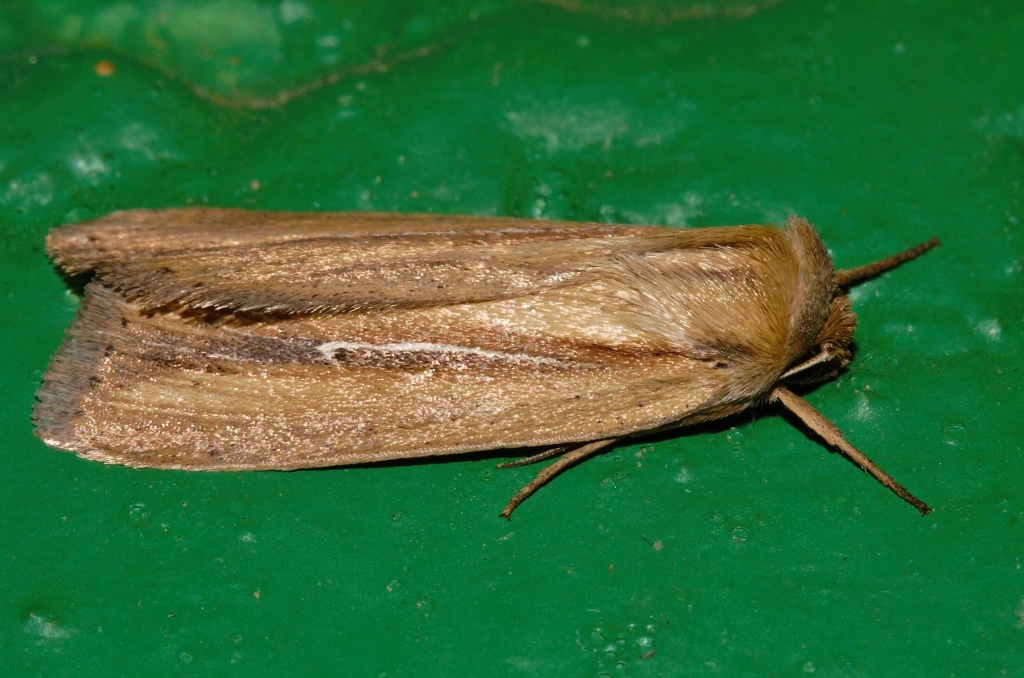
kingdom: Animalia
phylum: Arthropoda
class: Insecta
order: Lepidoptera
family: Noctuidae
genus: Mythimna
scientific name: Mythimna hamata
